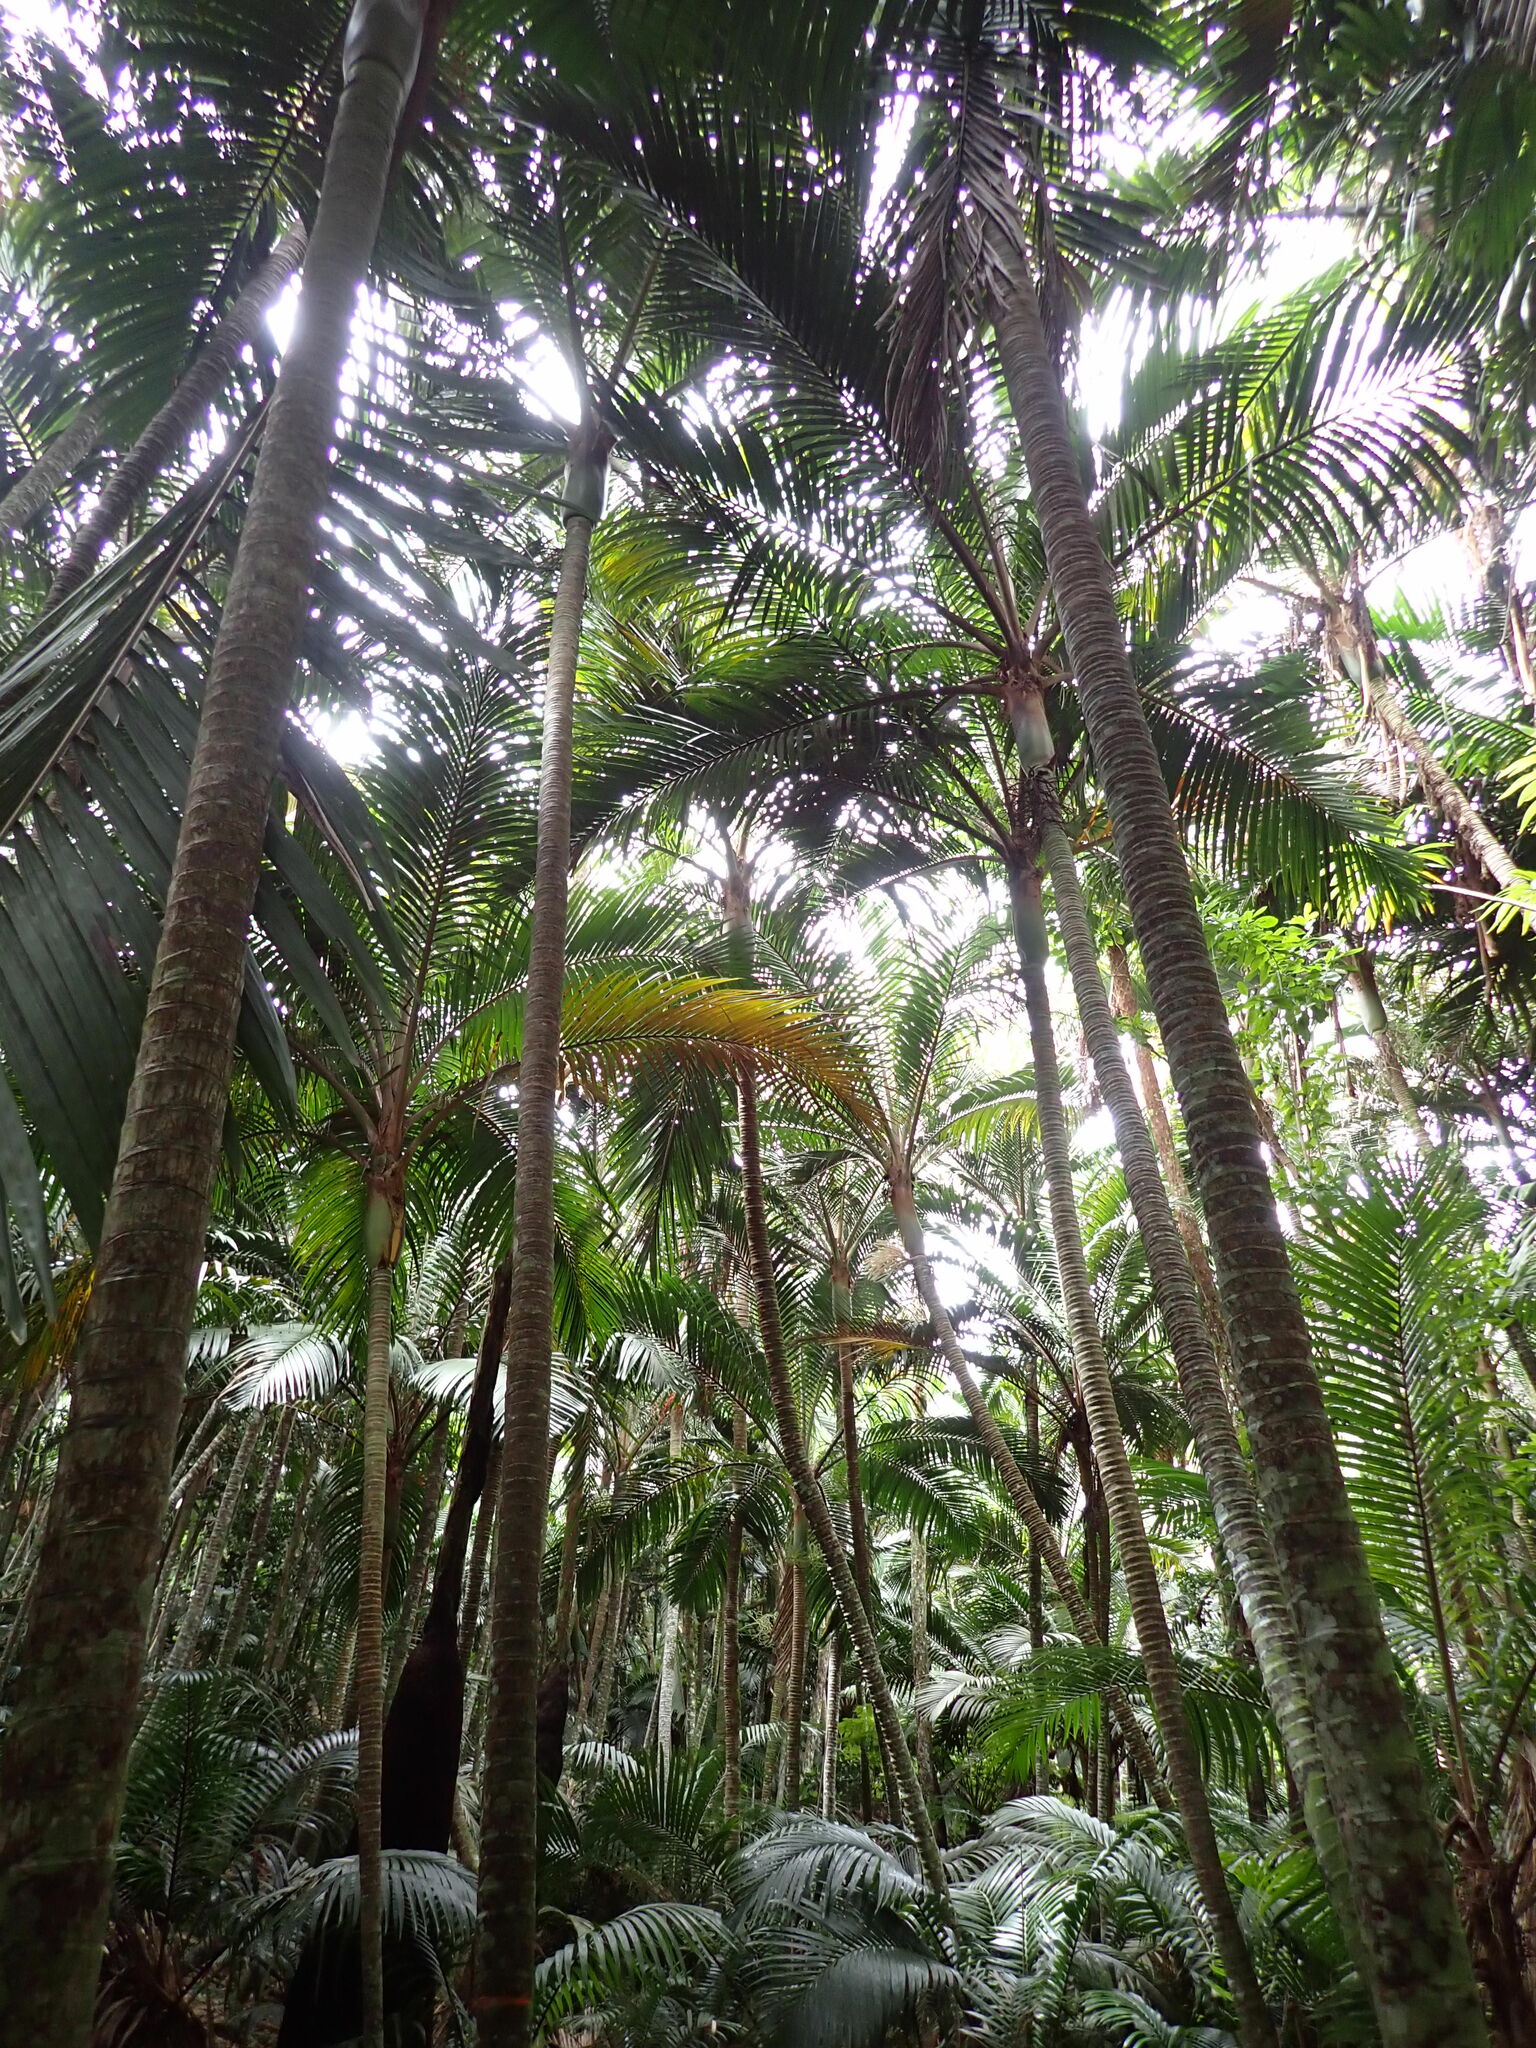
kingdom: Plantae
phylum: Tracheophyta
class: Liliopsida
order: Arecales
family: Arecaceae
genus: Rhopalostylis
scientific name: Rhopalostylis baueri
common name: Norfolk island palm
